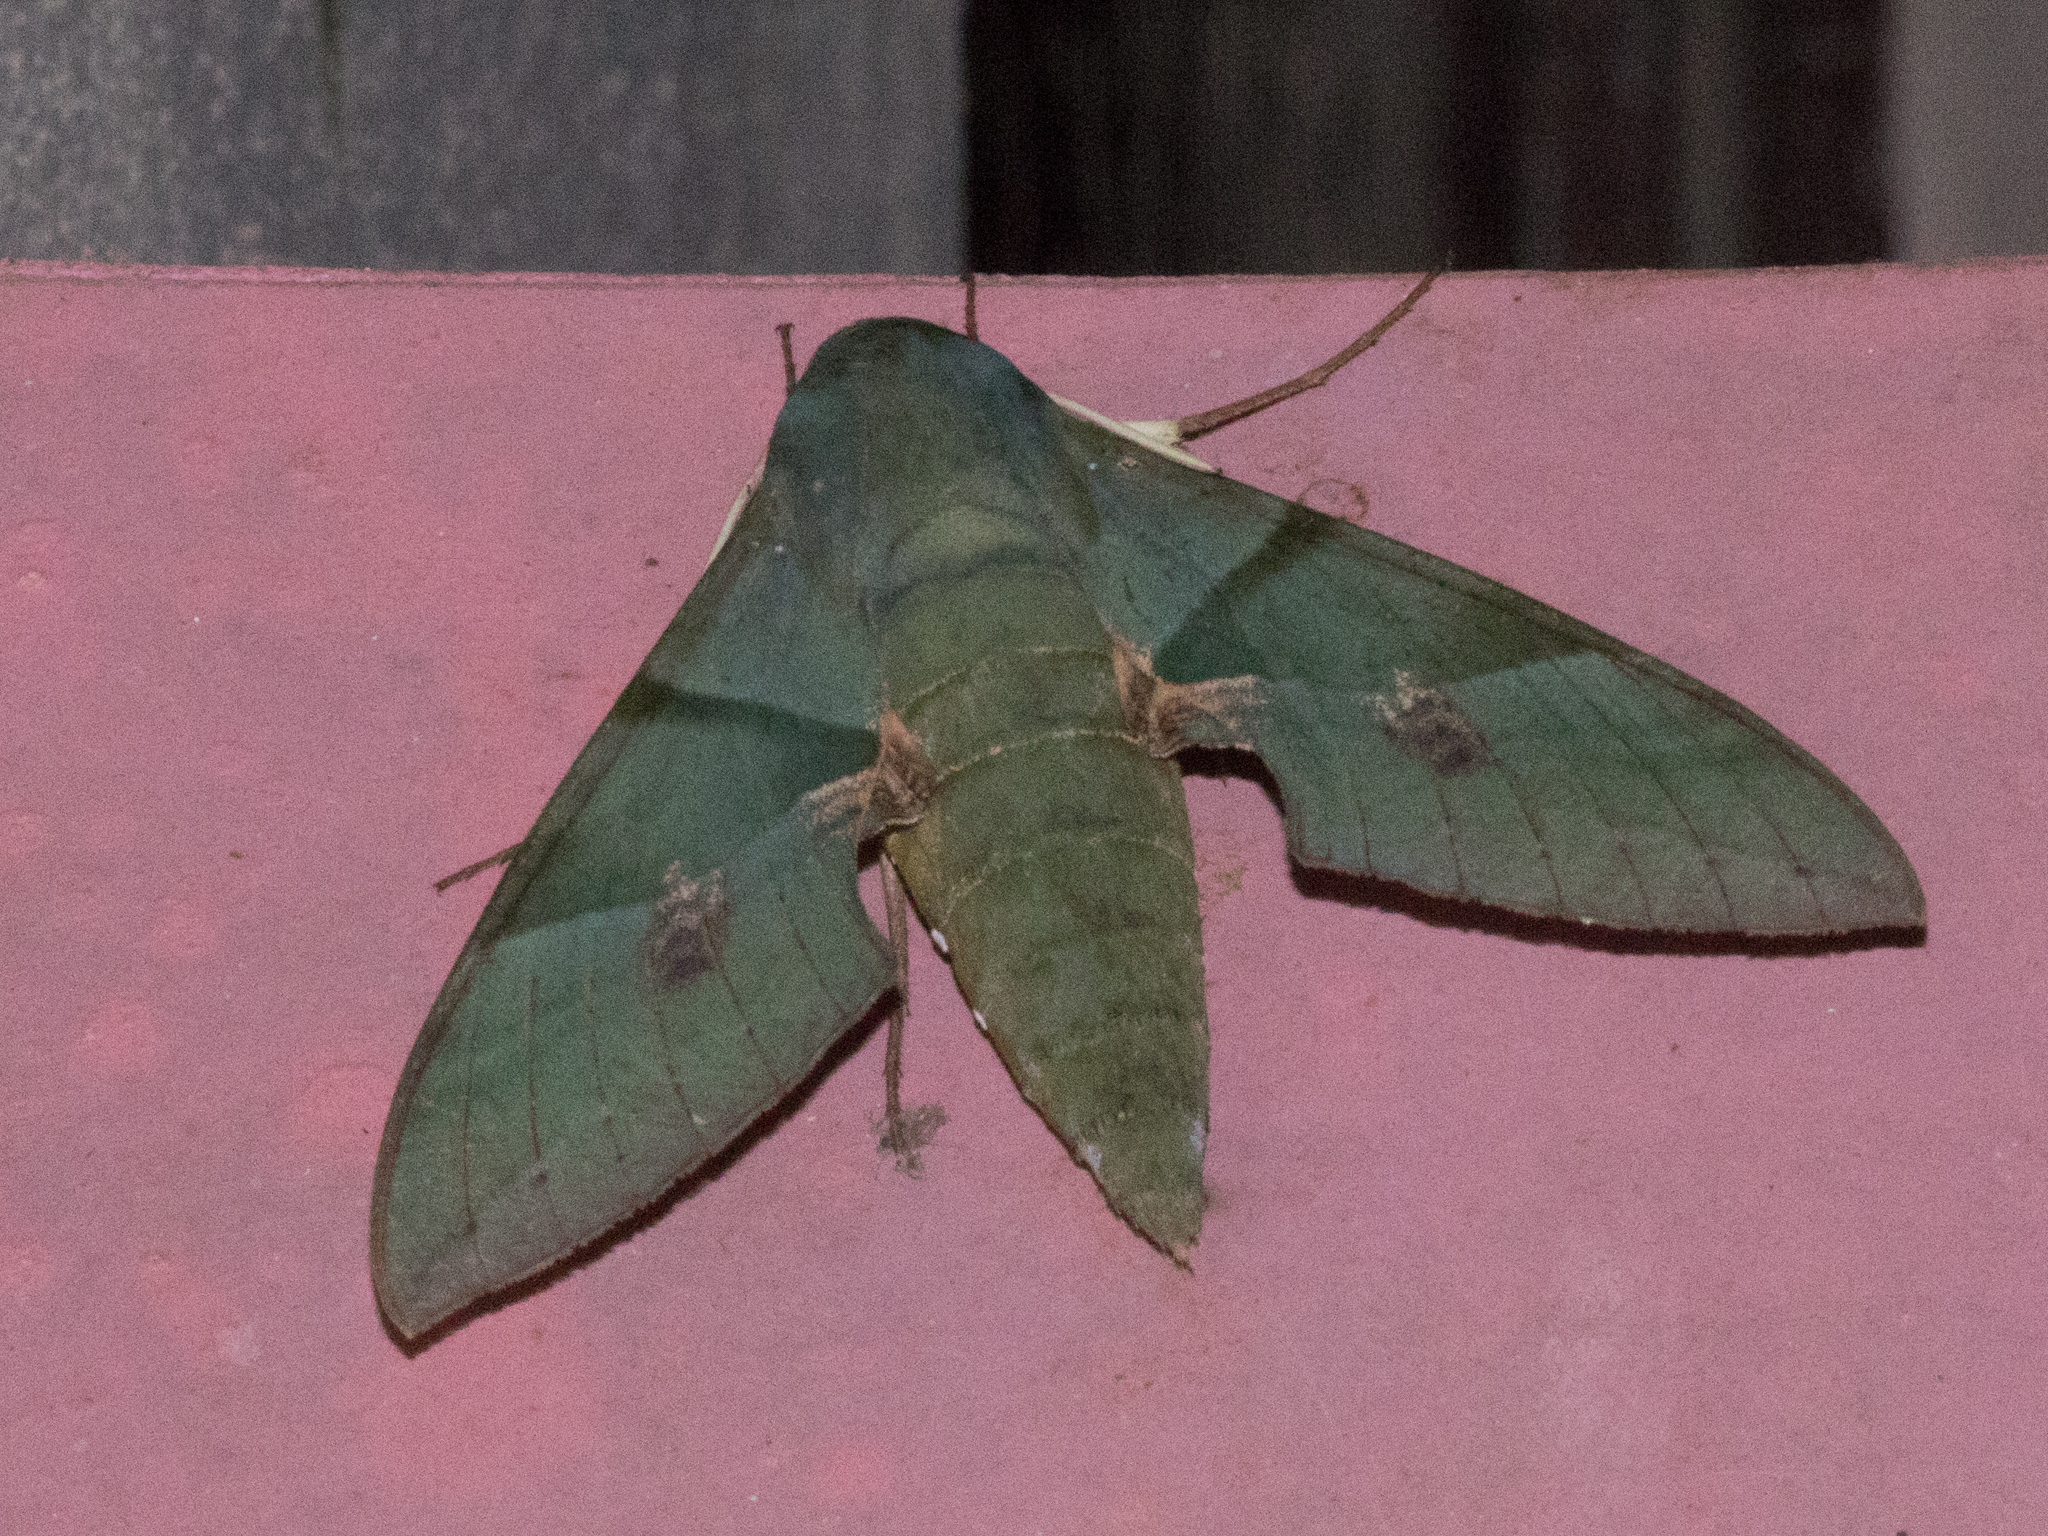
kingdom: Animalia
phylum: Arthropoda
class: Insecta
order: Lepidoptera
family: Sphingidae
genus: Eumorpha
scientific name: Eumorpha labruscae
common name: Gaudy sphinx
